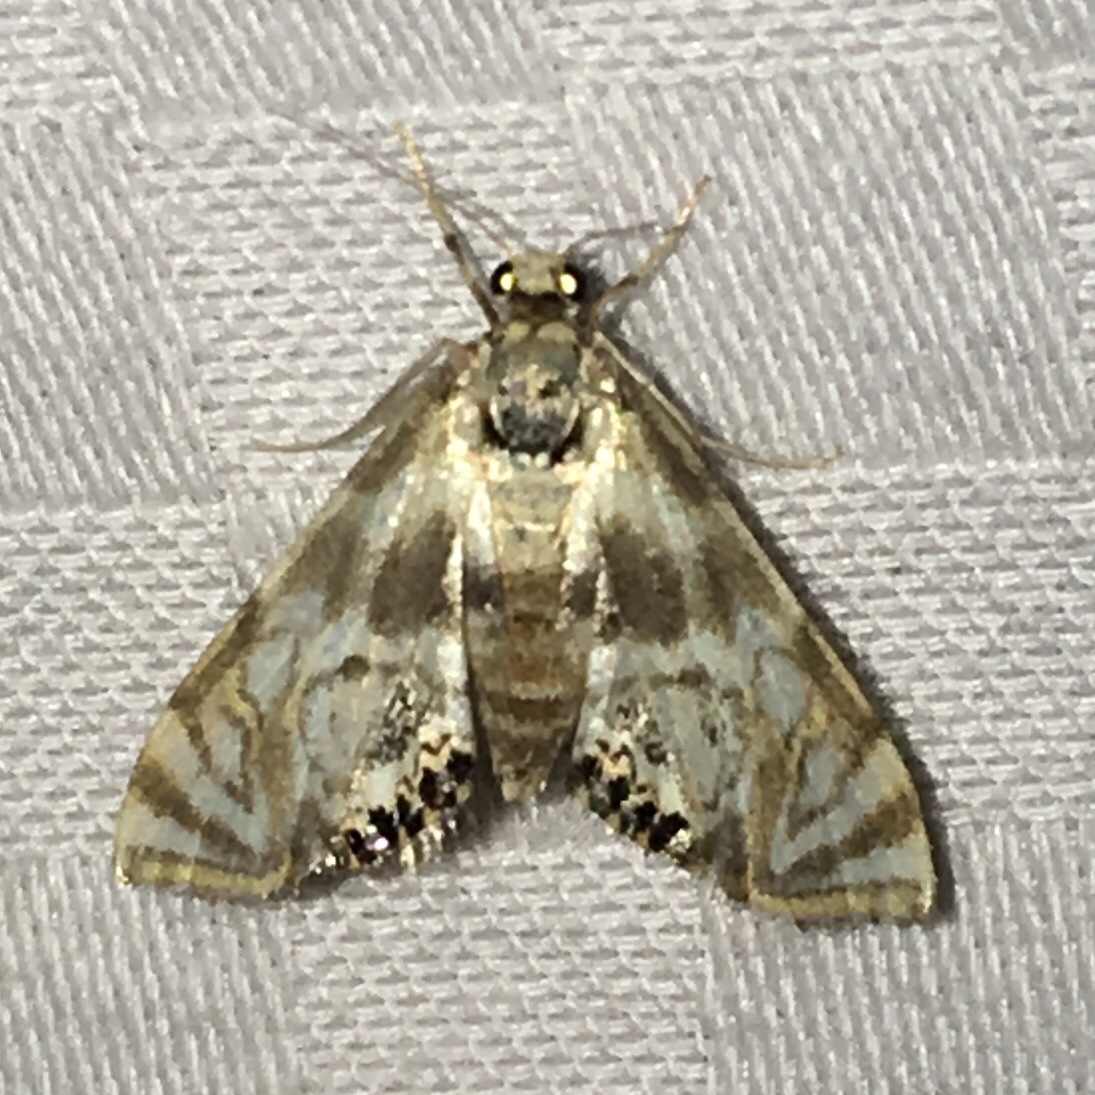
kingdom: Animalia
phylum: Arthropoda
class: Insecta
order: Lepidoptera
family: Crambidae
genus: Petrophila
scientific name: Petrophila canadensis
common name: Canadian petrophila
